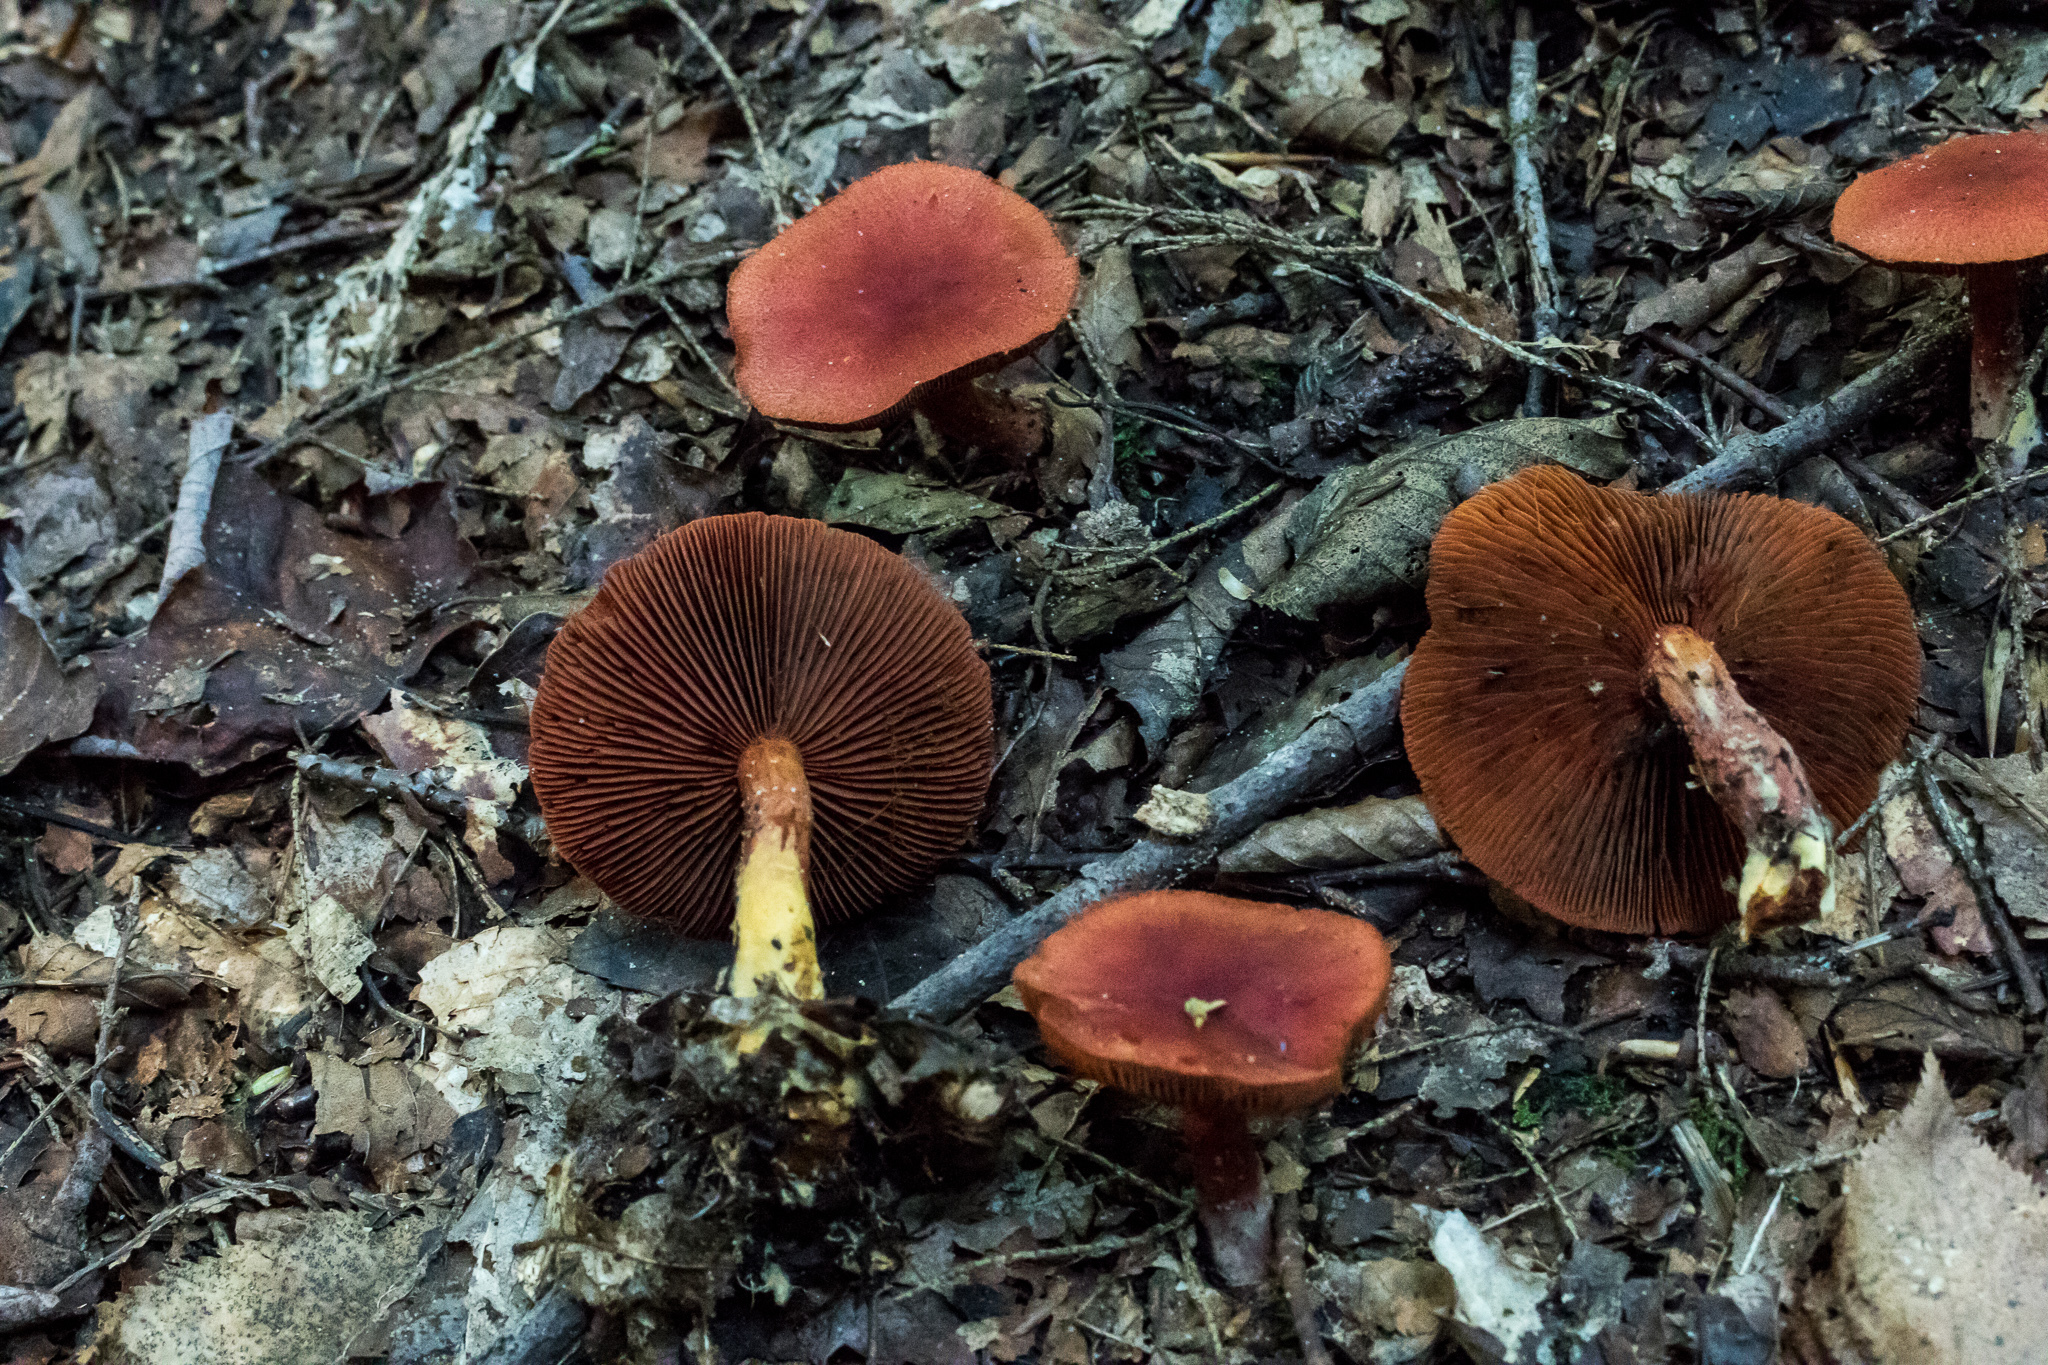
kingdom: Fungi
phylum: Basidiomycota
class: Agaricomycetes
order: Agaricales
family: Cortinariaceae
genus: Cortinarius
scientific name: Cortinarius harrisonii
